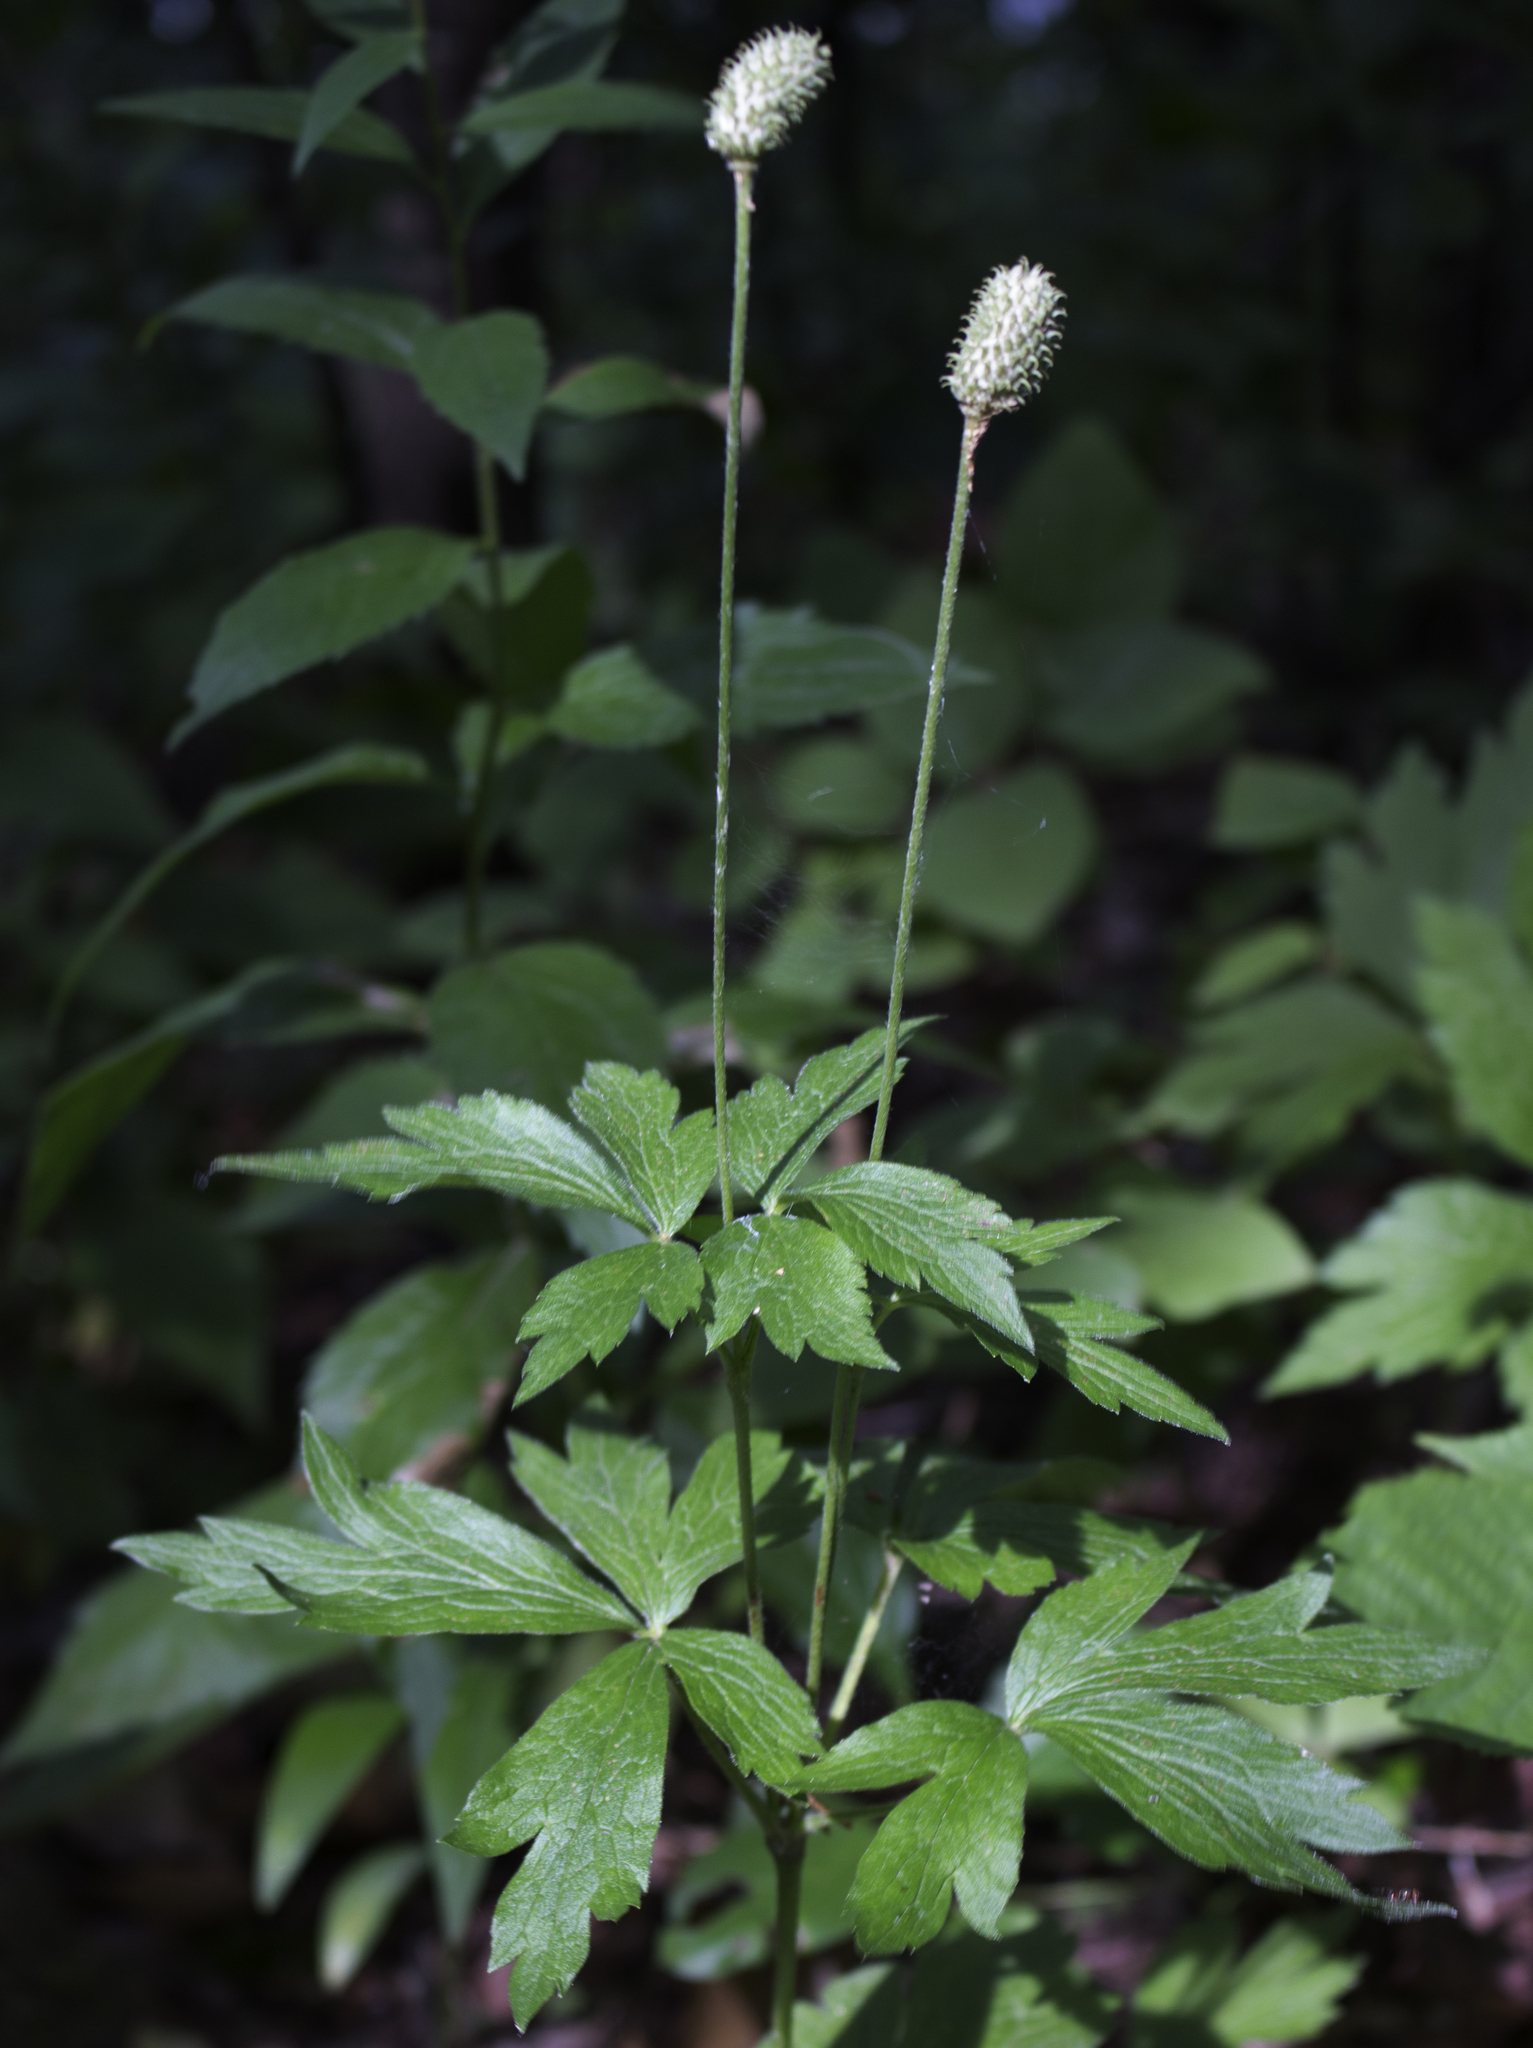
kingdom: Plantae
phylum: Tracheophyta
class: Magnoliopsida
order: Ranunculales
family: Ranunculaceae
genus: Anemone
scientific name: Anemone virginiana
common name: Tall anemone
